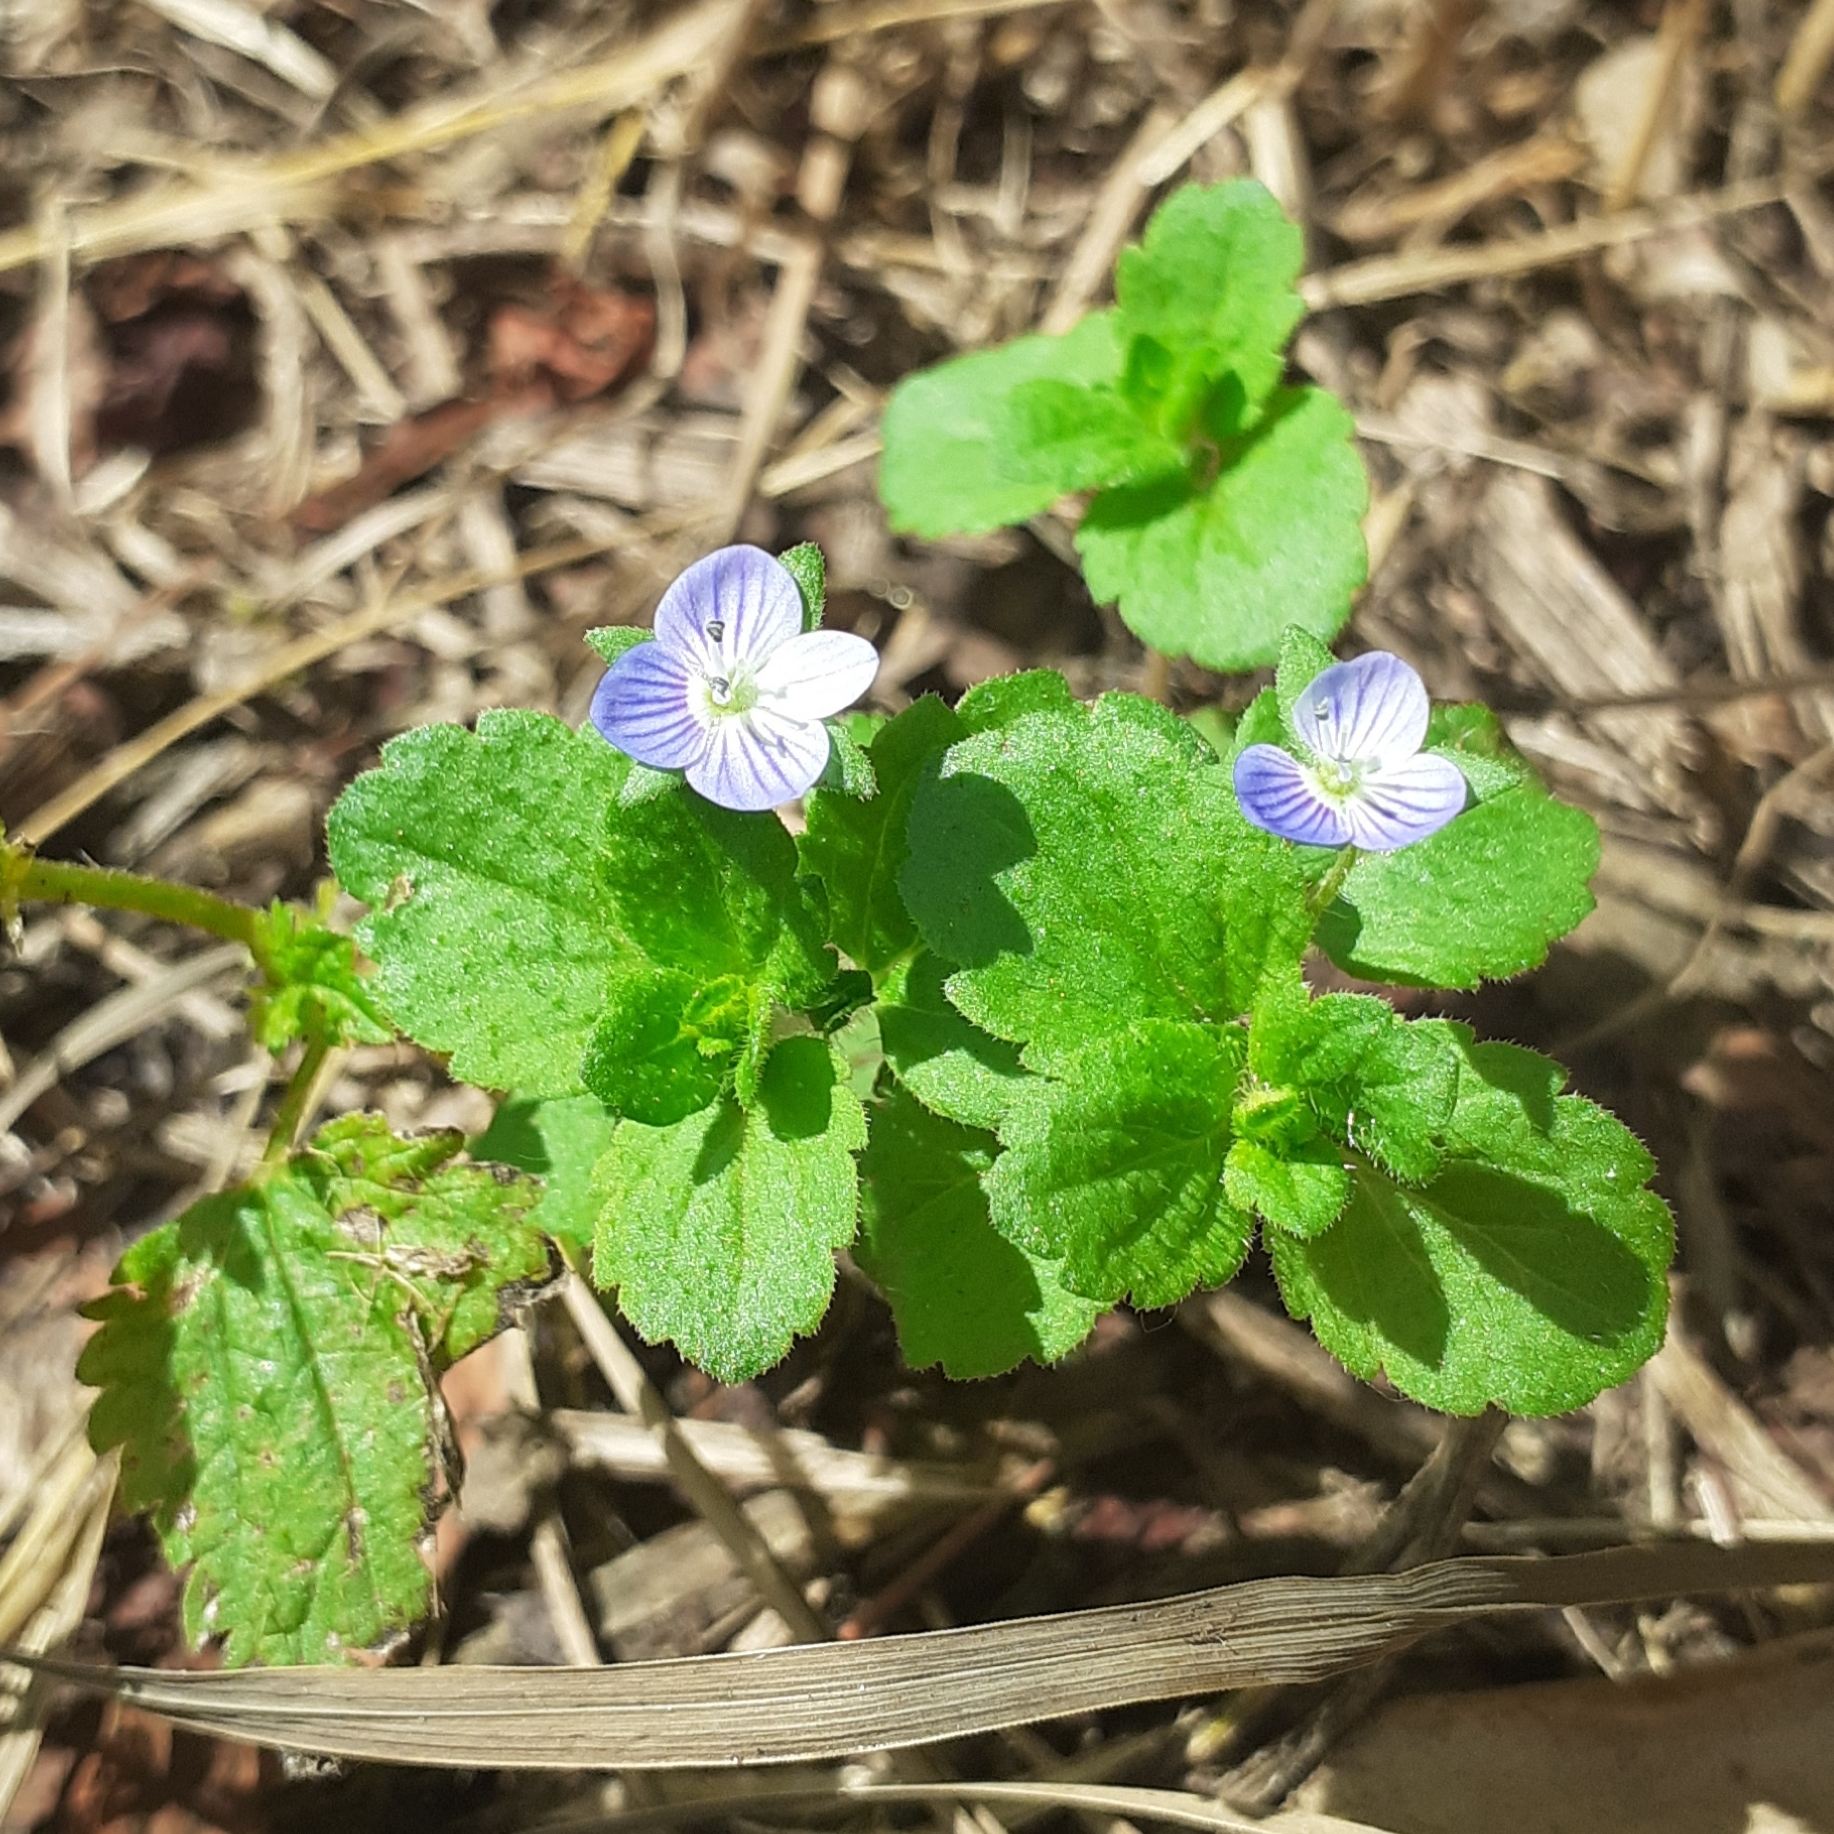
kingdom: Plantae
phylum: Tracheophyta
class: Magnoliopsida
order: Lamiales
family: Plantaginaceae
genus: Veronica
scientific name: Veronica persica
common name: Common field-speedwell
